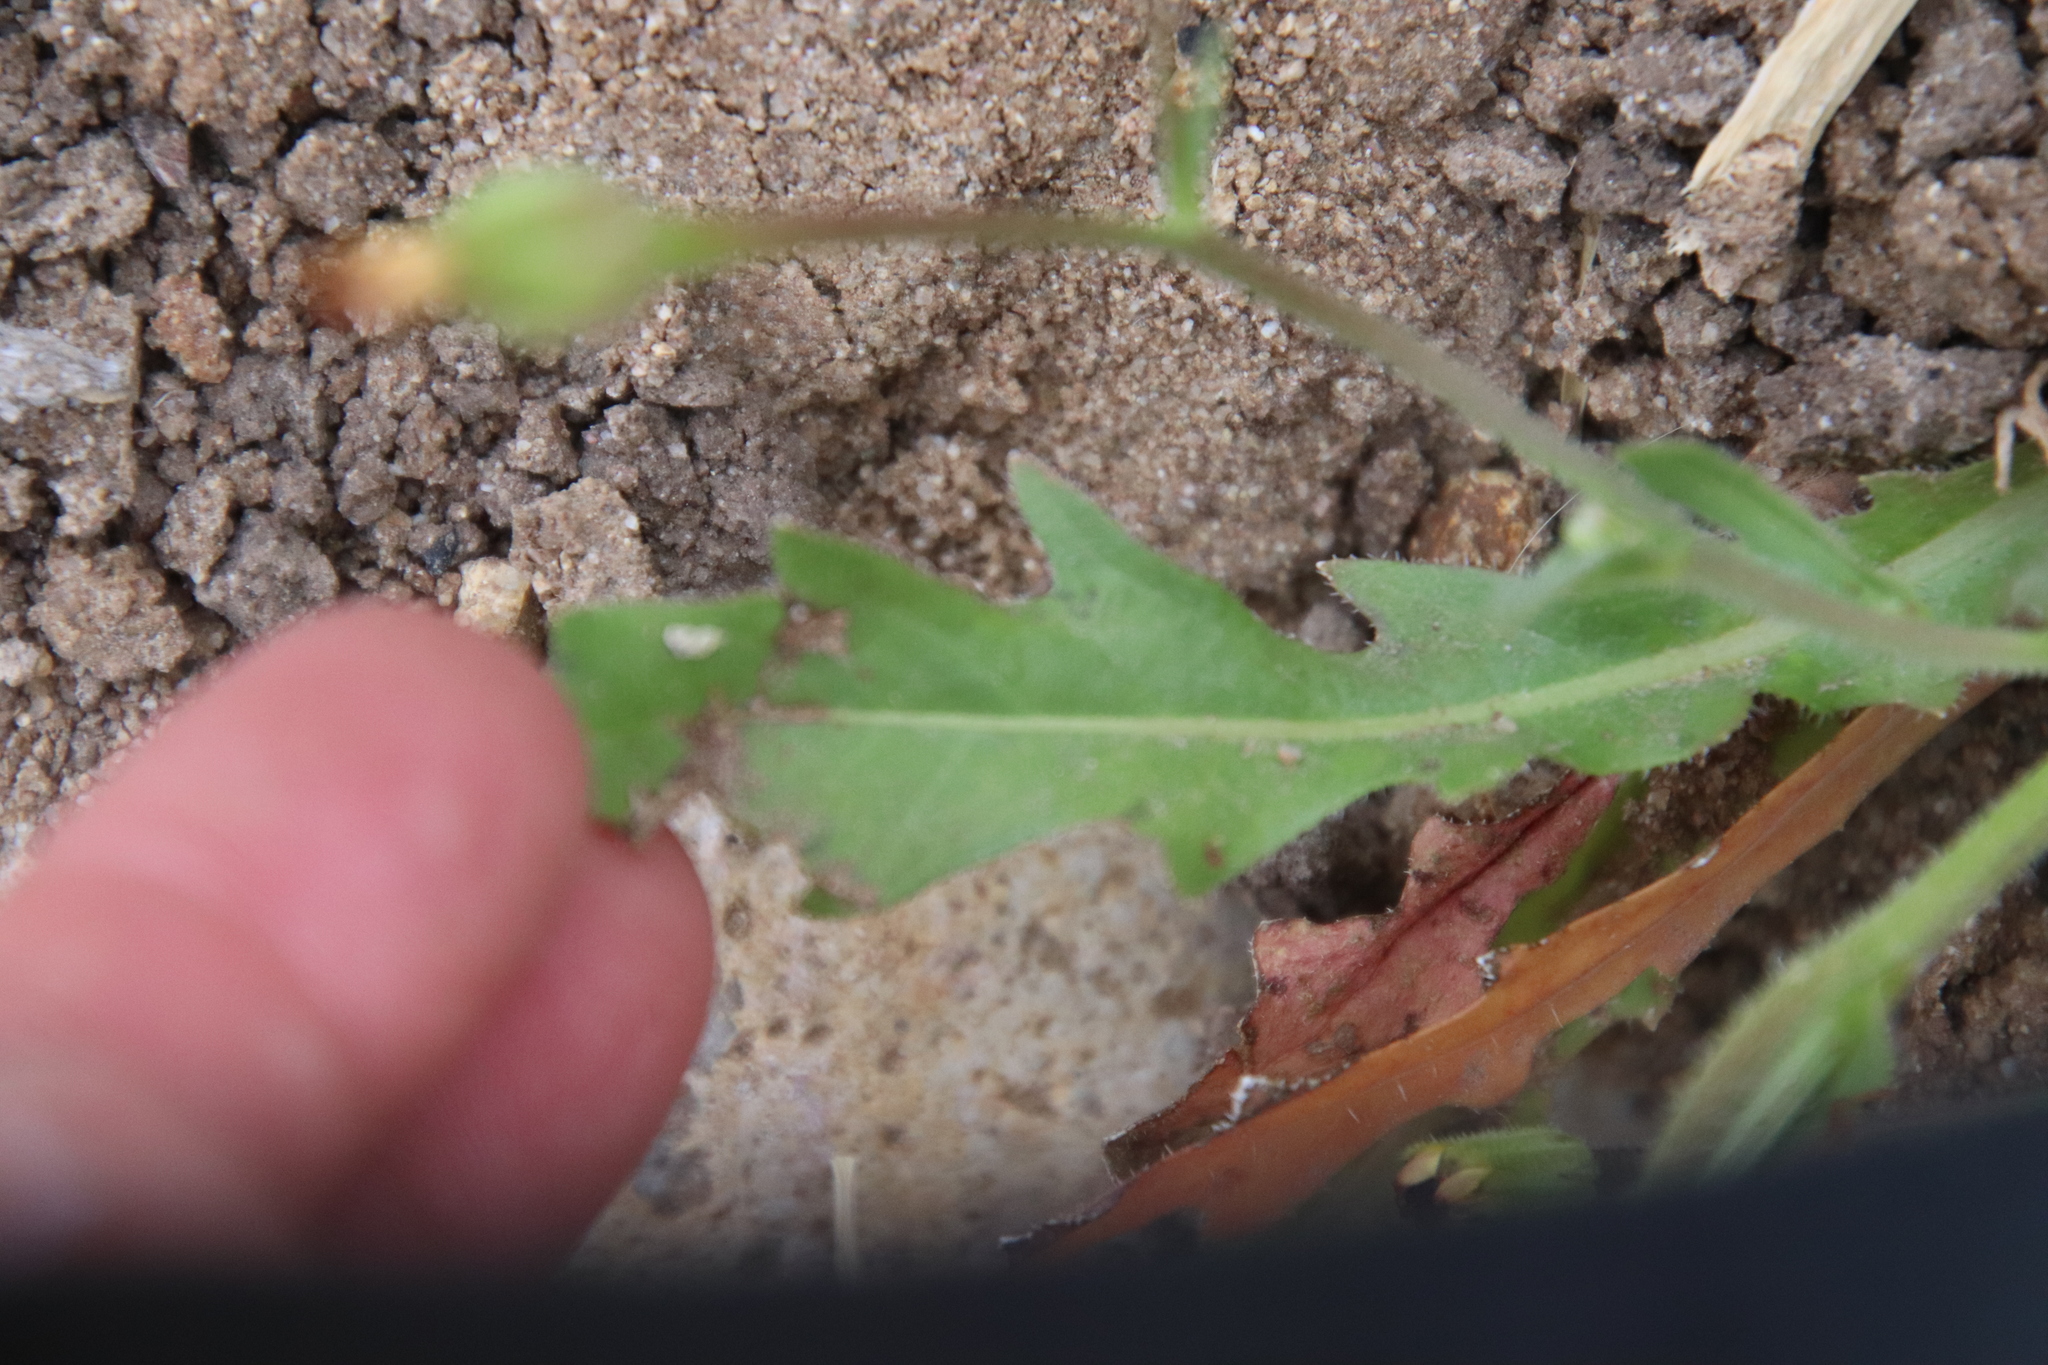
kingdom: Plantae
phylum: Tracheophyta
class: Magnoliopsida
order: Asterales
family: Asteraceae
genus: Hedypnois
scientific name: Hedypnois rhagadioloides
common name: Cretan weed
